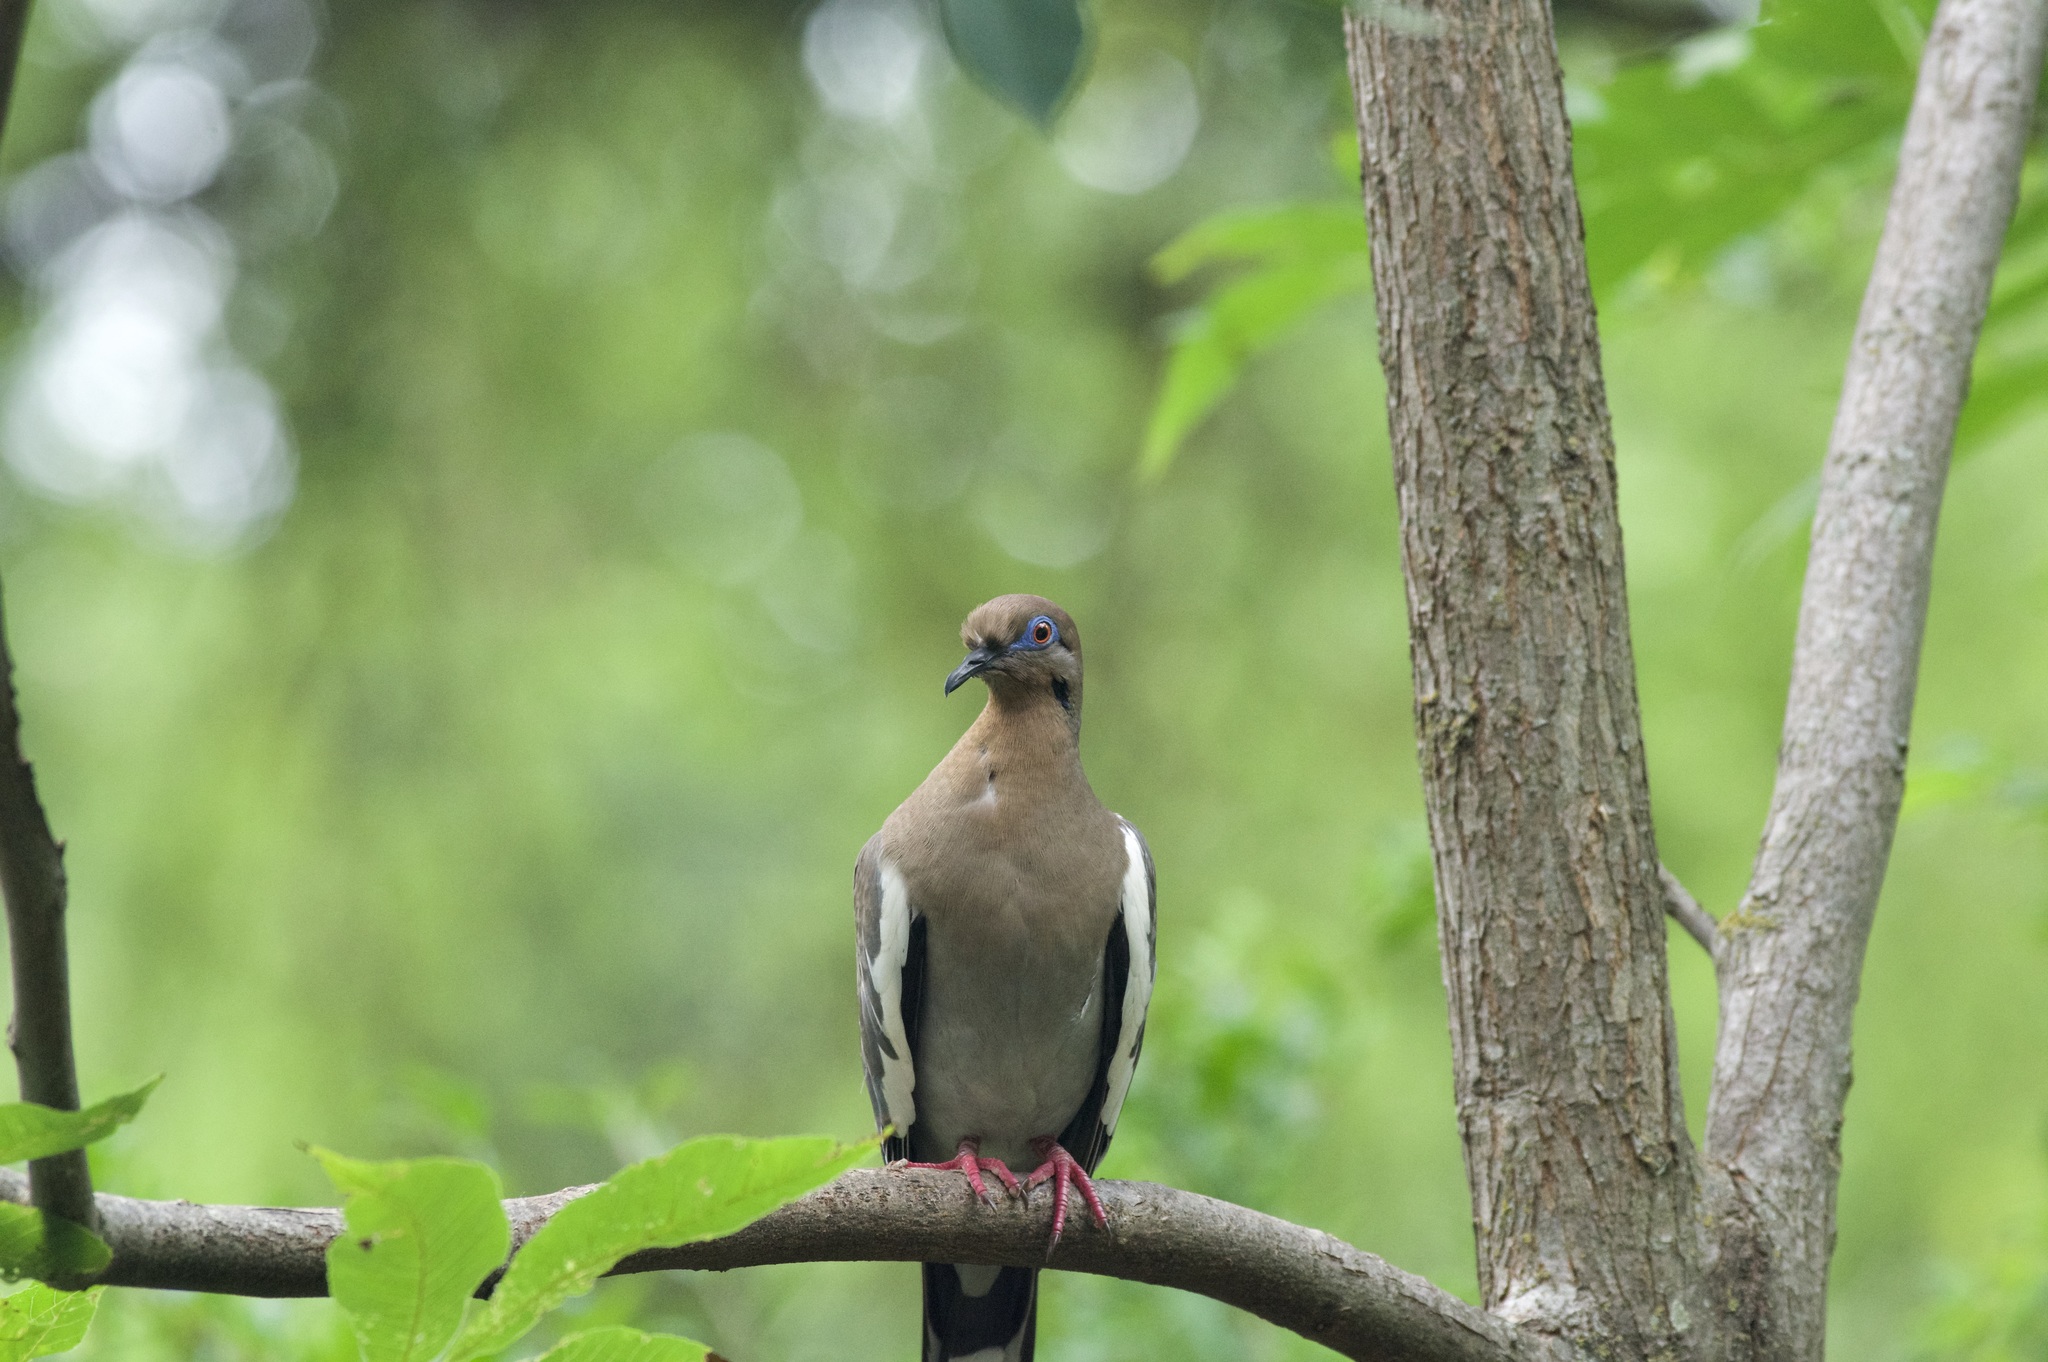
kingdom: Animalia
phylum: Chordata
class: Aves
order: Columbiformes
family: Columbidae
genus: Zenaida
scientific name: Zenaida asiatica
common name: White-winged dove
